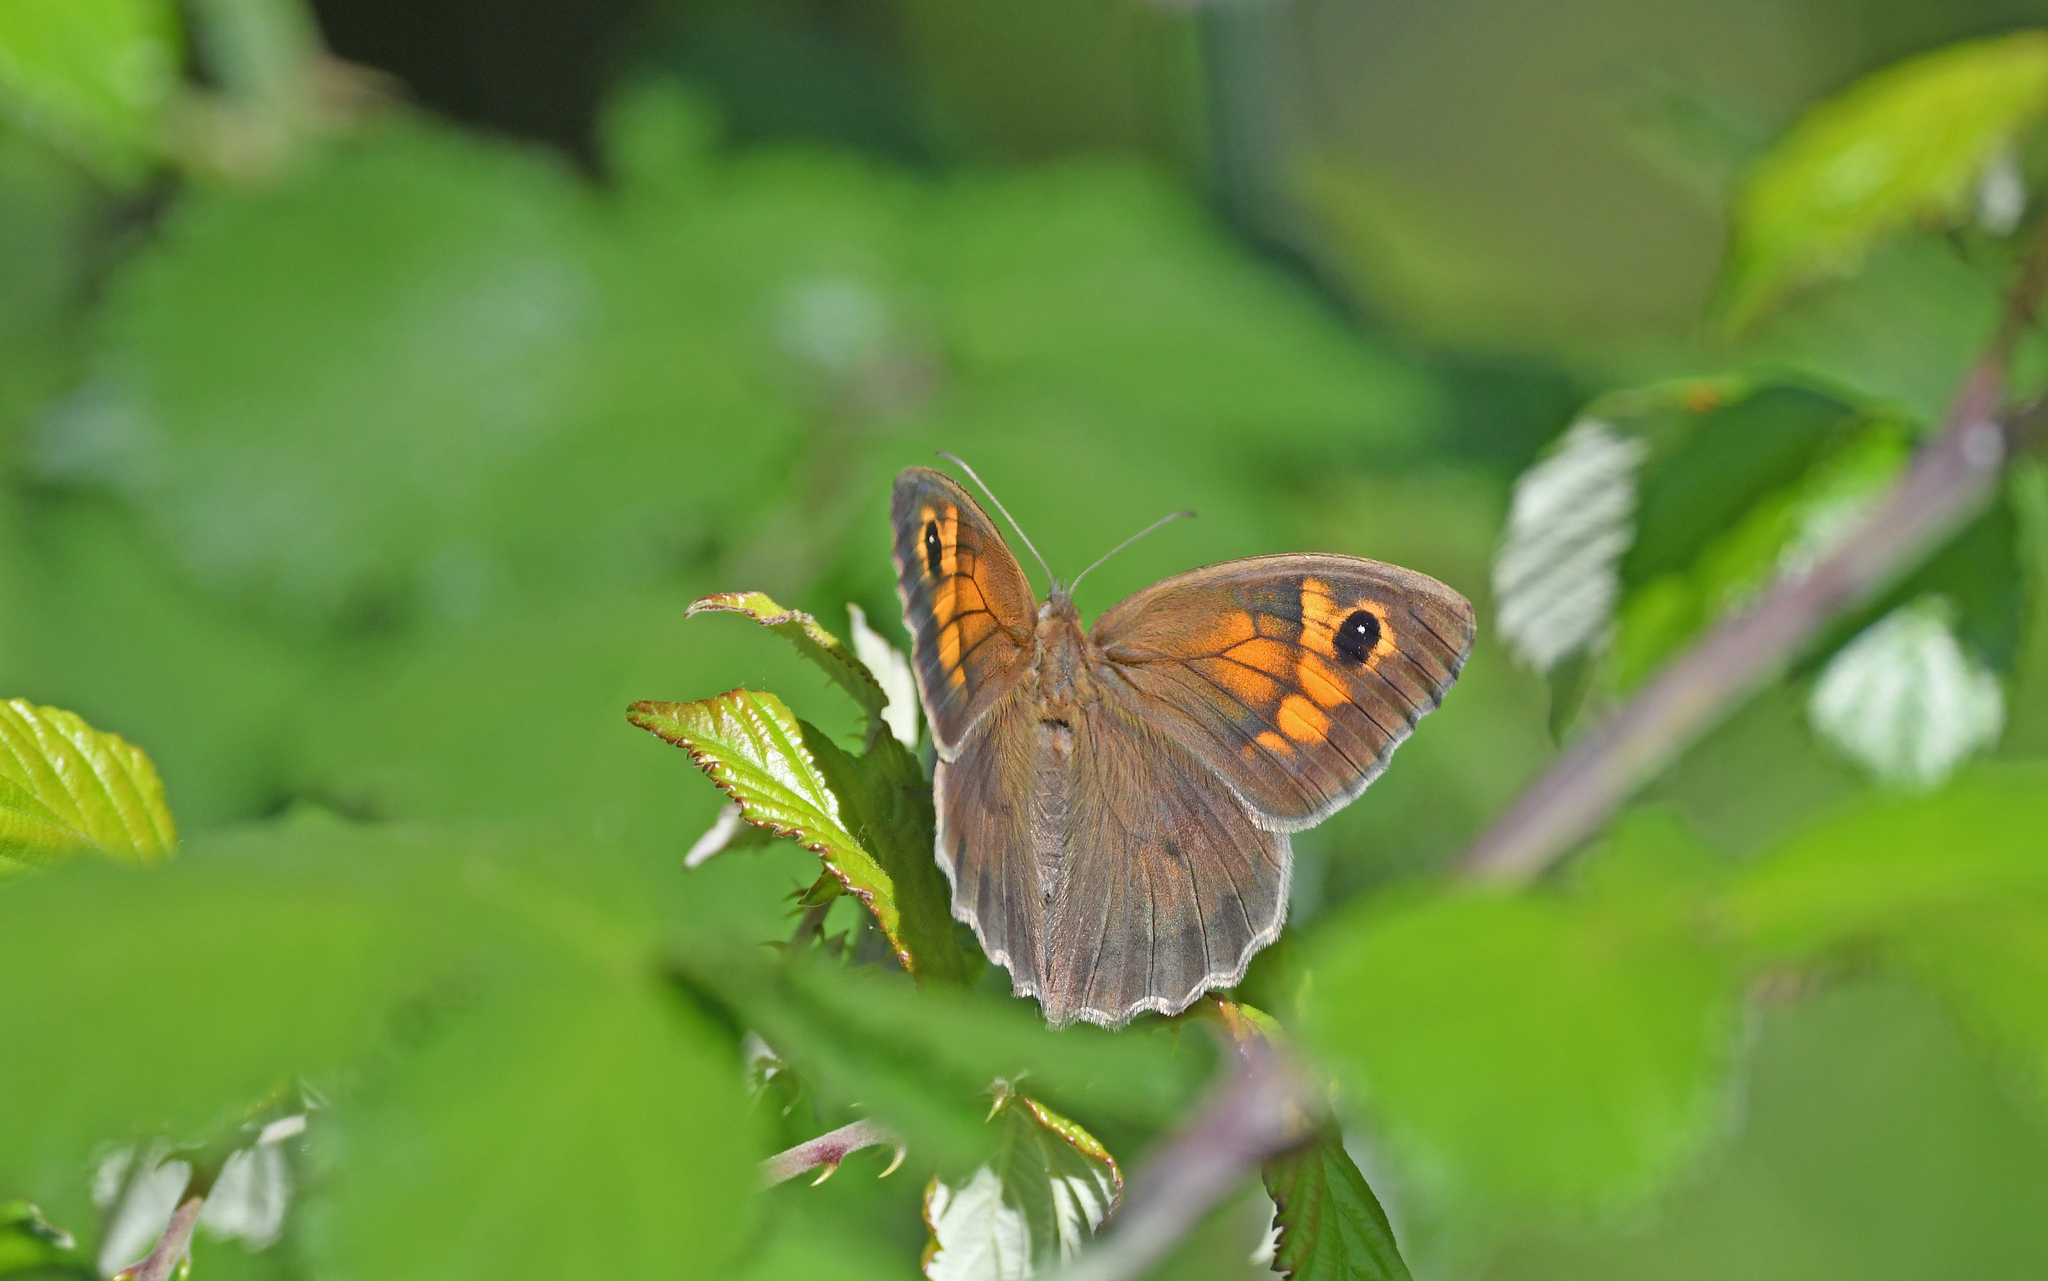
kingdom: Animalia
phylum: Arthropoda
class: Insecta
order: Lepidoptera
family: Nymphalidae
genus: Maniola
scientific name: Maniola jurtina
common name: Meadow brown
